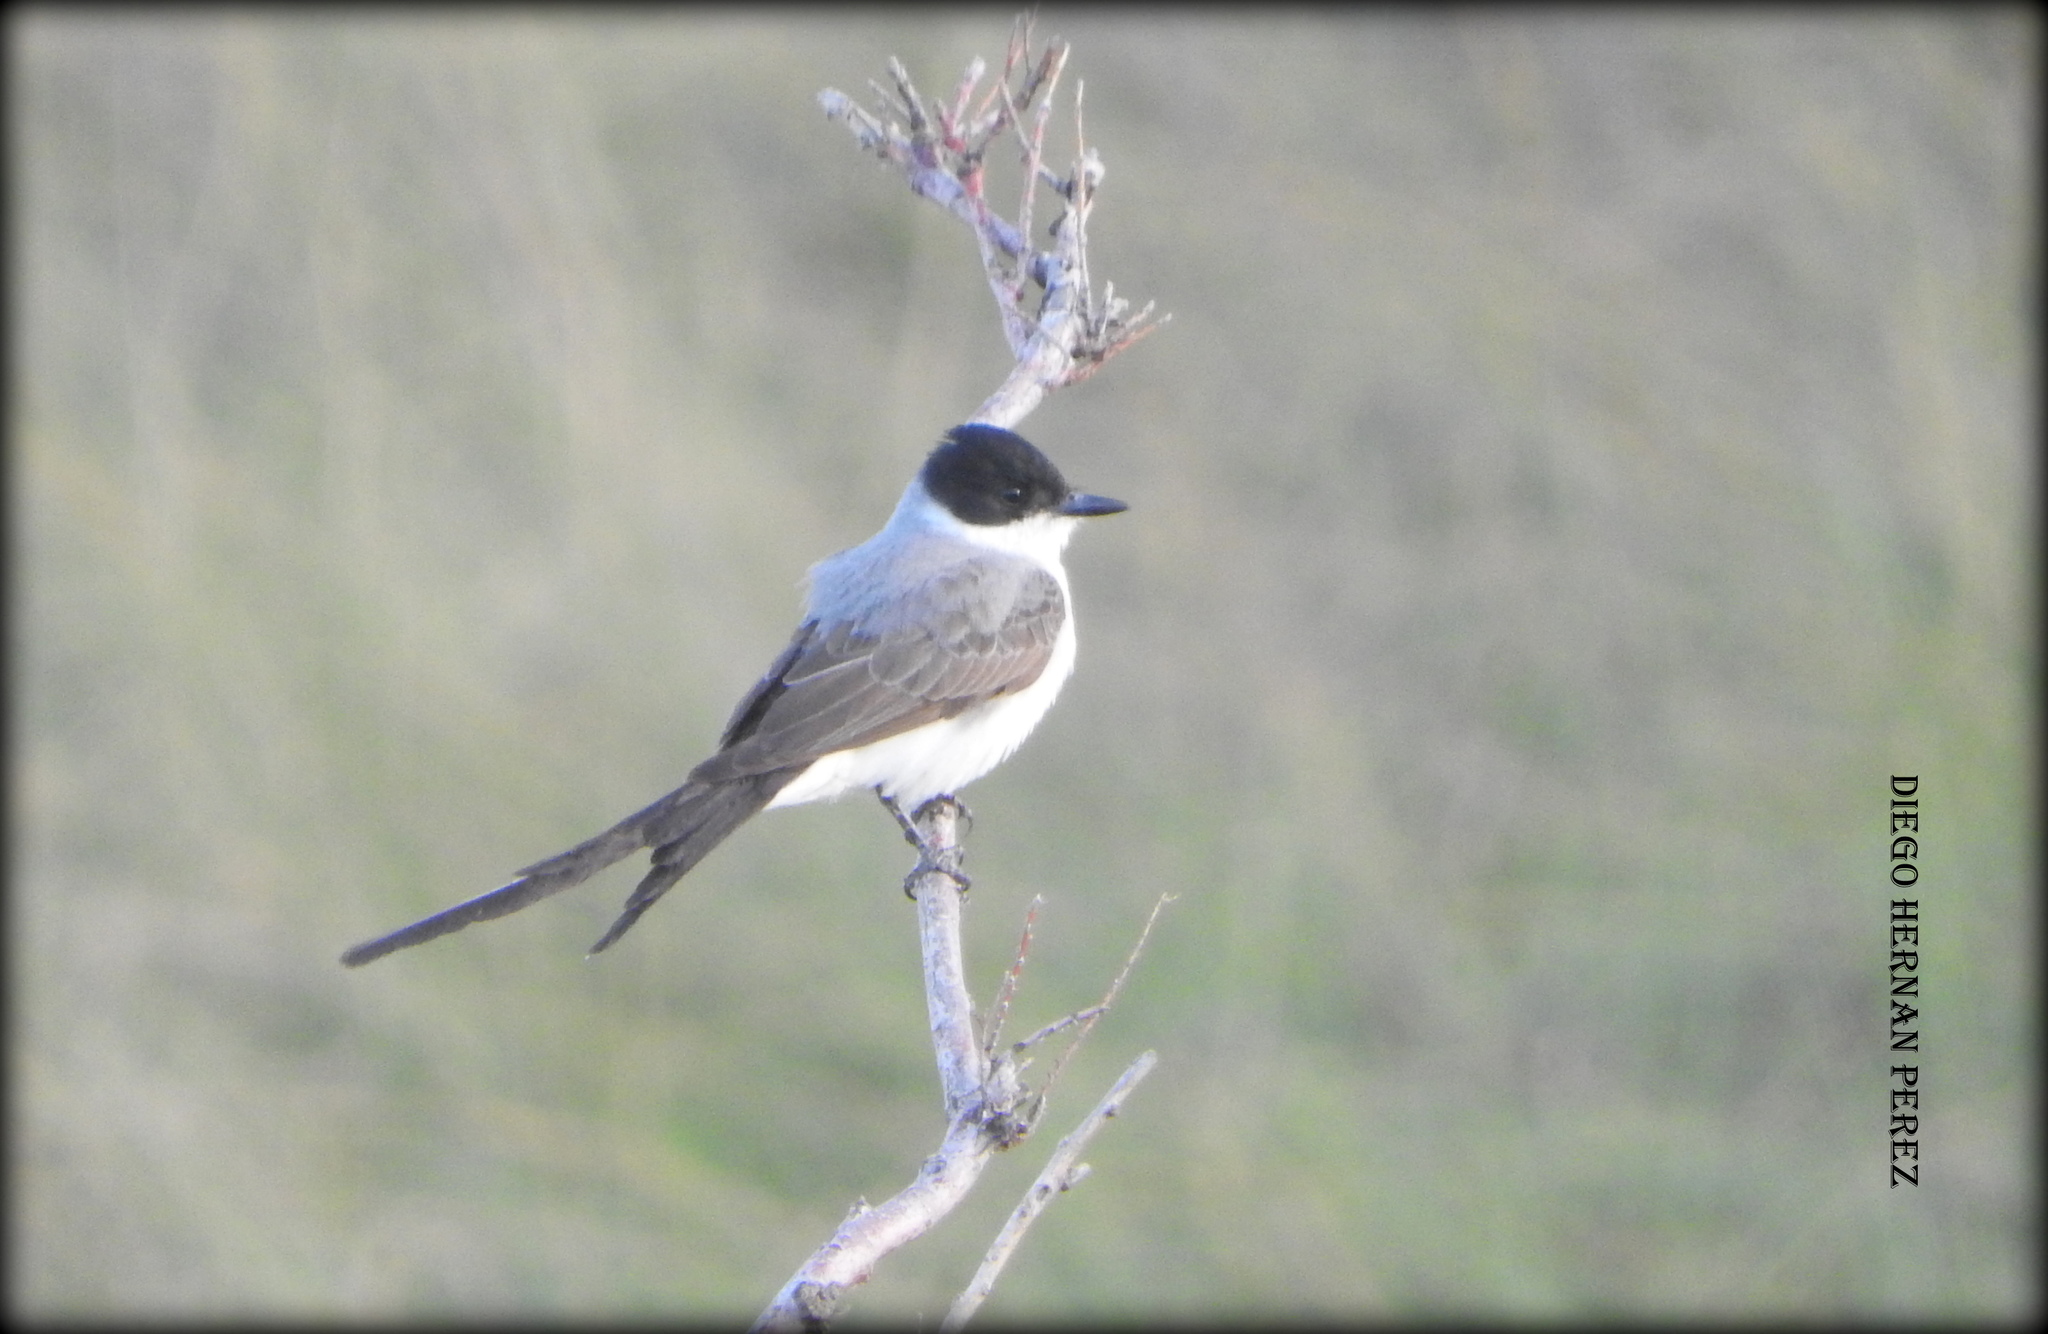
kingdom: Animalia
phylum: Chordata
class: Aves
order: Passeriformes
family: Tyrannidae
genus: Tyrannus
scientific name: Tyrannus savana
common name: Fork-tailed flycatcher
